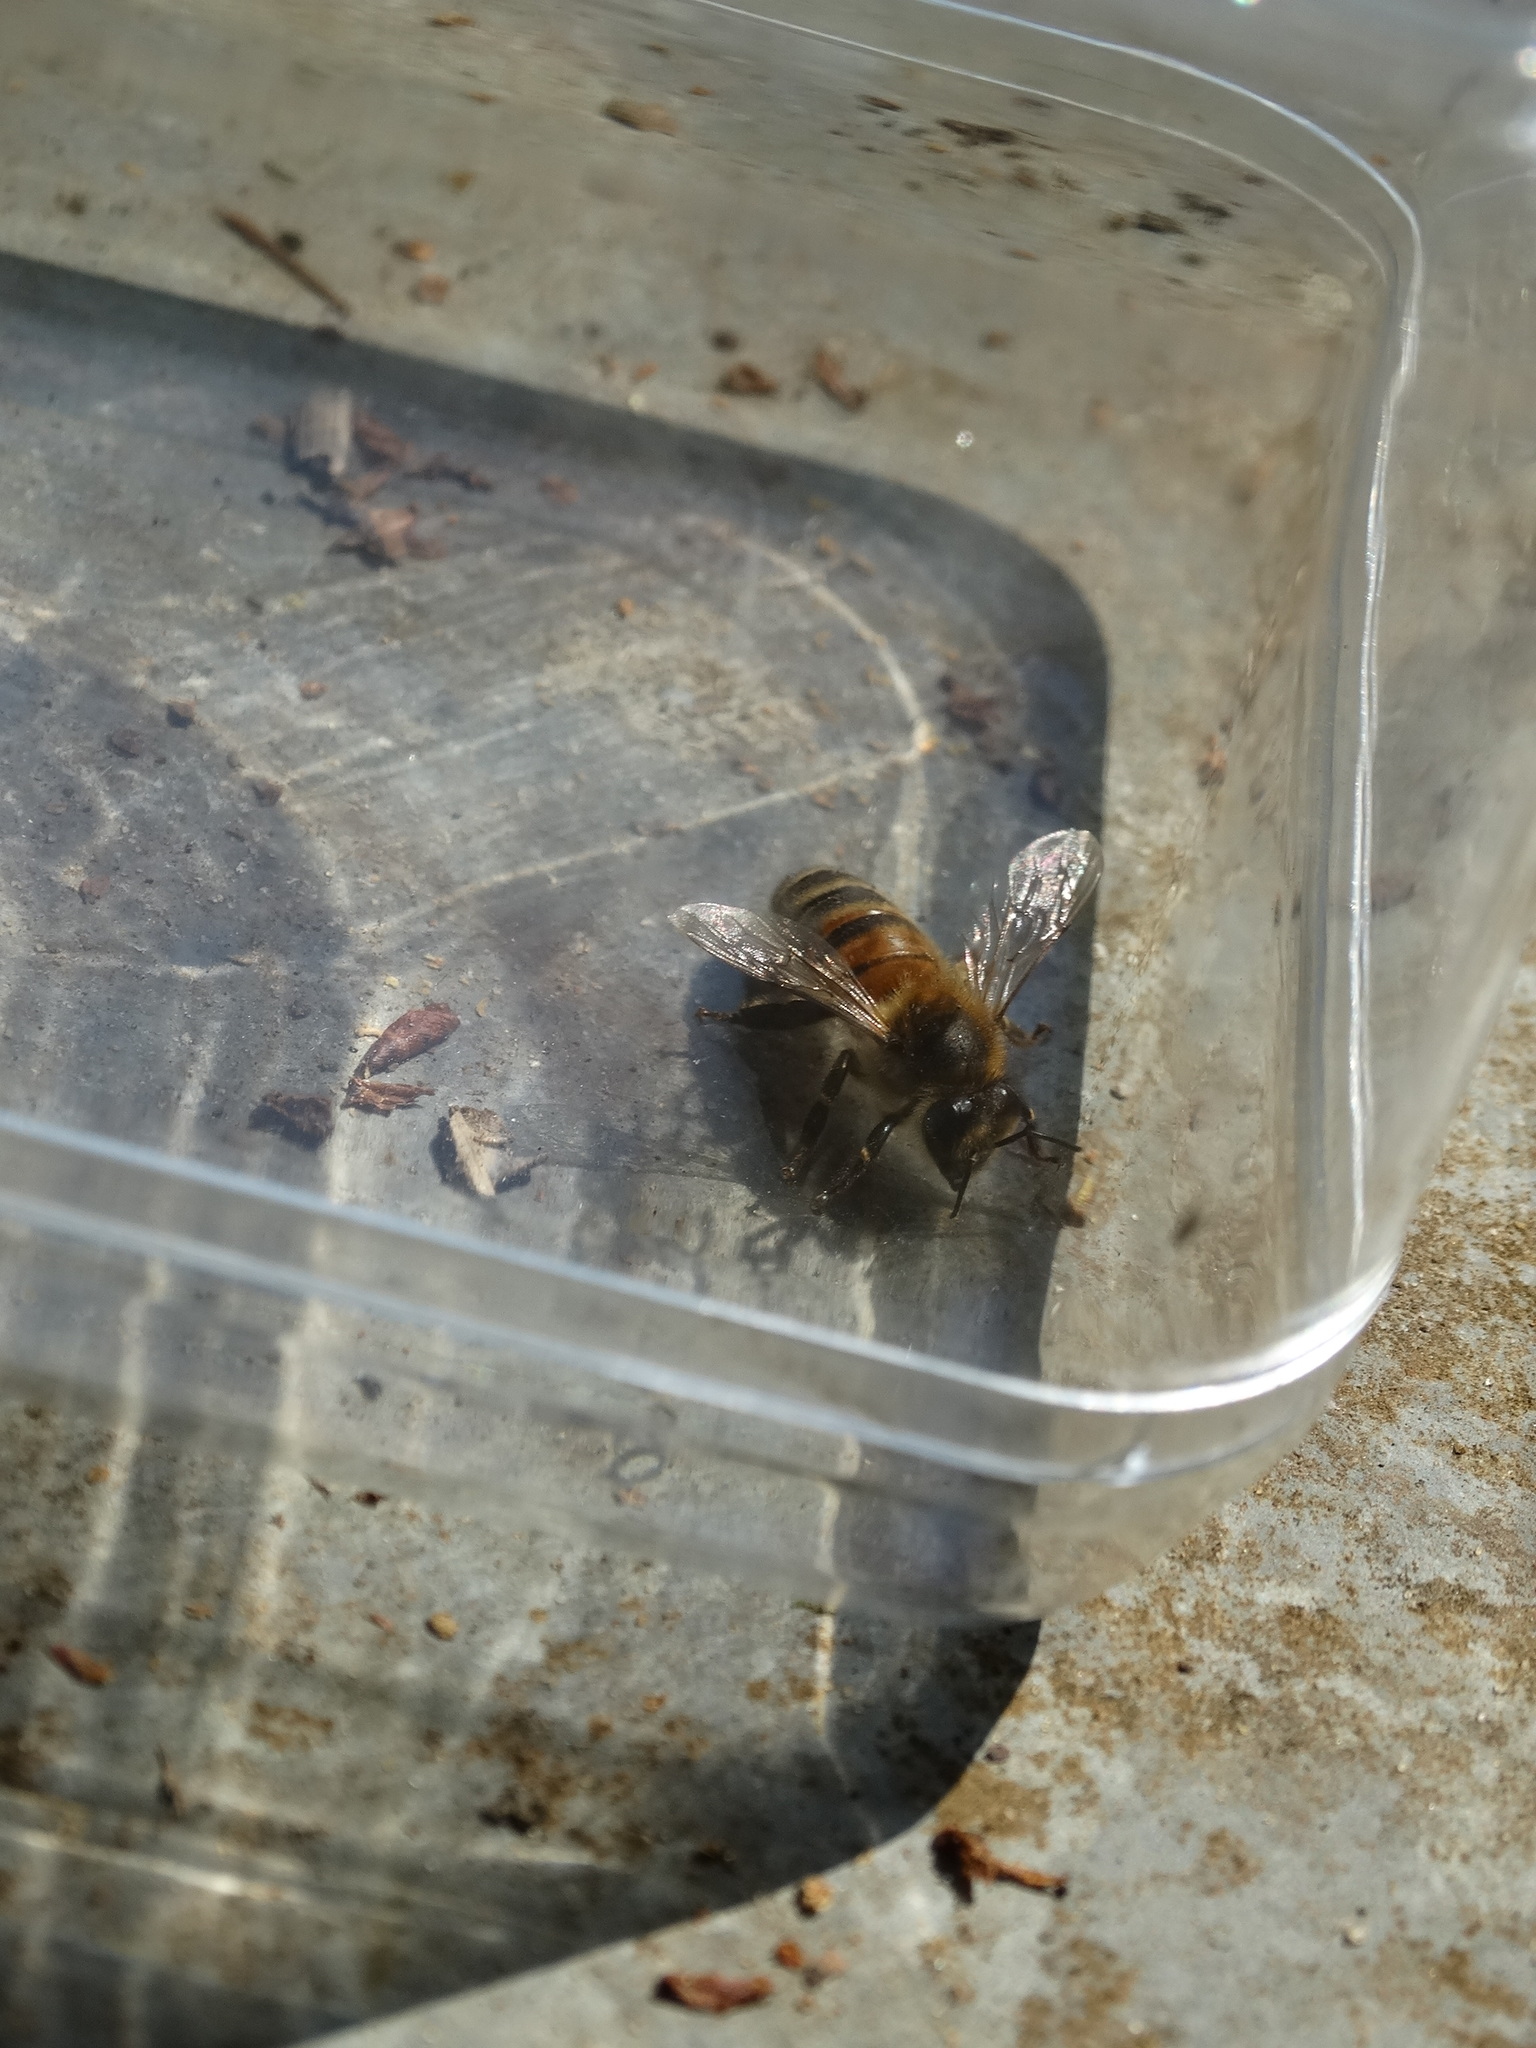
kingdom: Animalia
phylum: Arthropoda
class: Insecta
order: Hymenoptera
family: Apidae
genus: Apis
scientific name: Apis mellifera
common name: Honey bee
